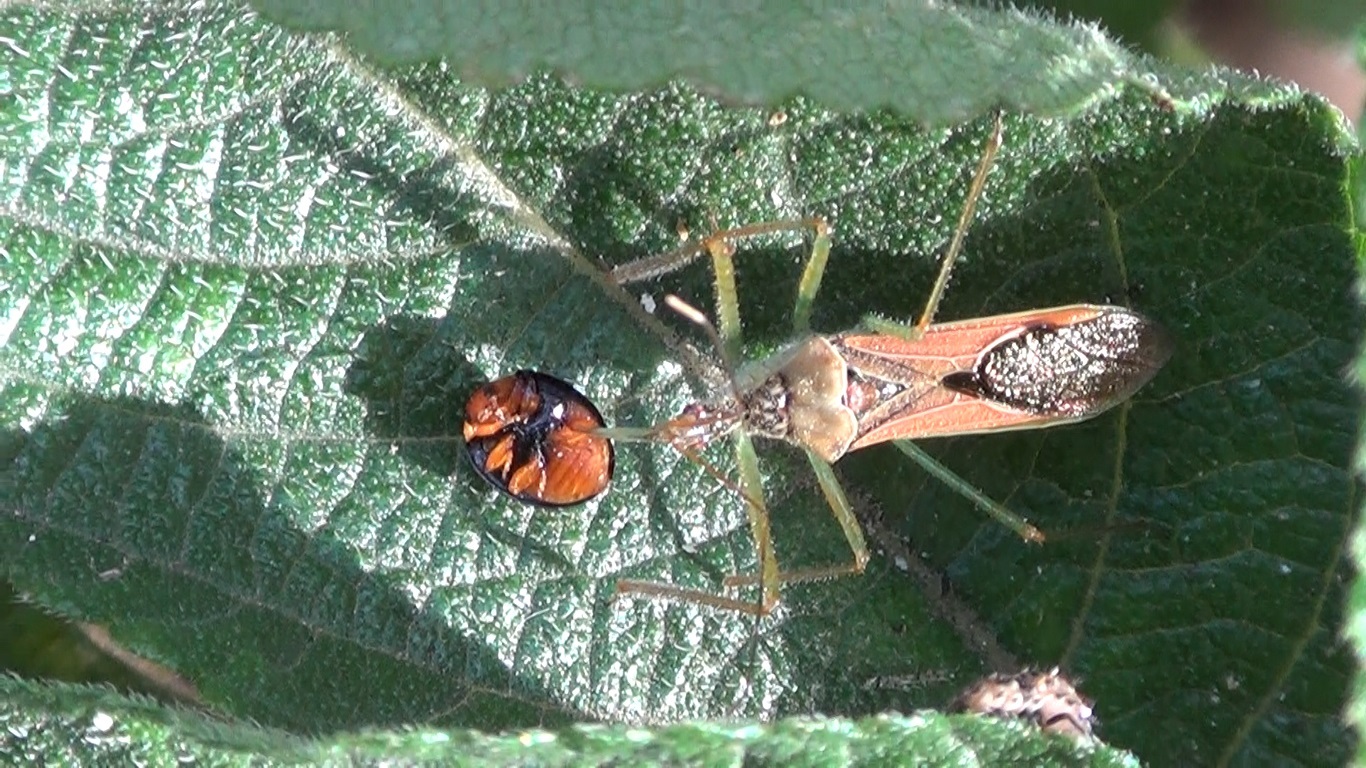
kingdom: Animalia
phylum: Arthropoda
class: Insecta
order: Hemiptera
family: Reduviidae
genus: Zelus
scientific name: Zelus renardii
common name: Assassin bug
